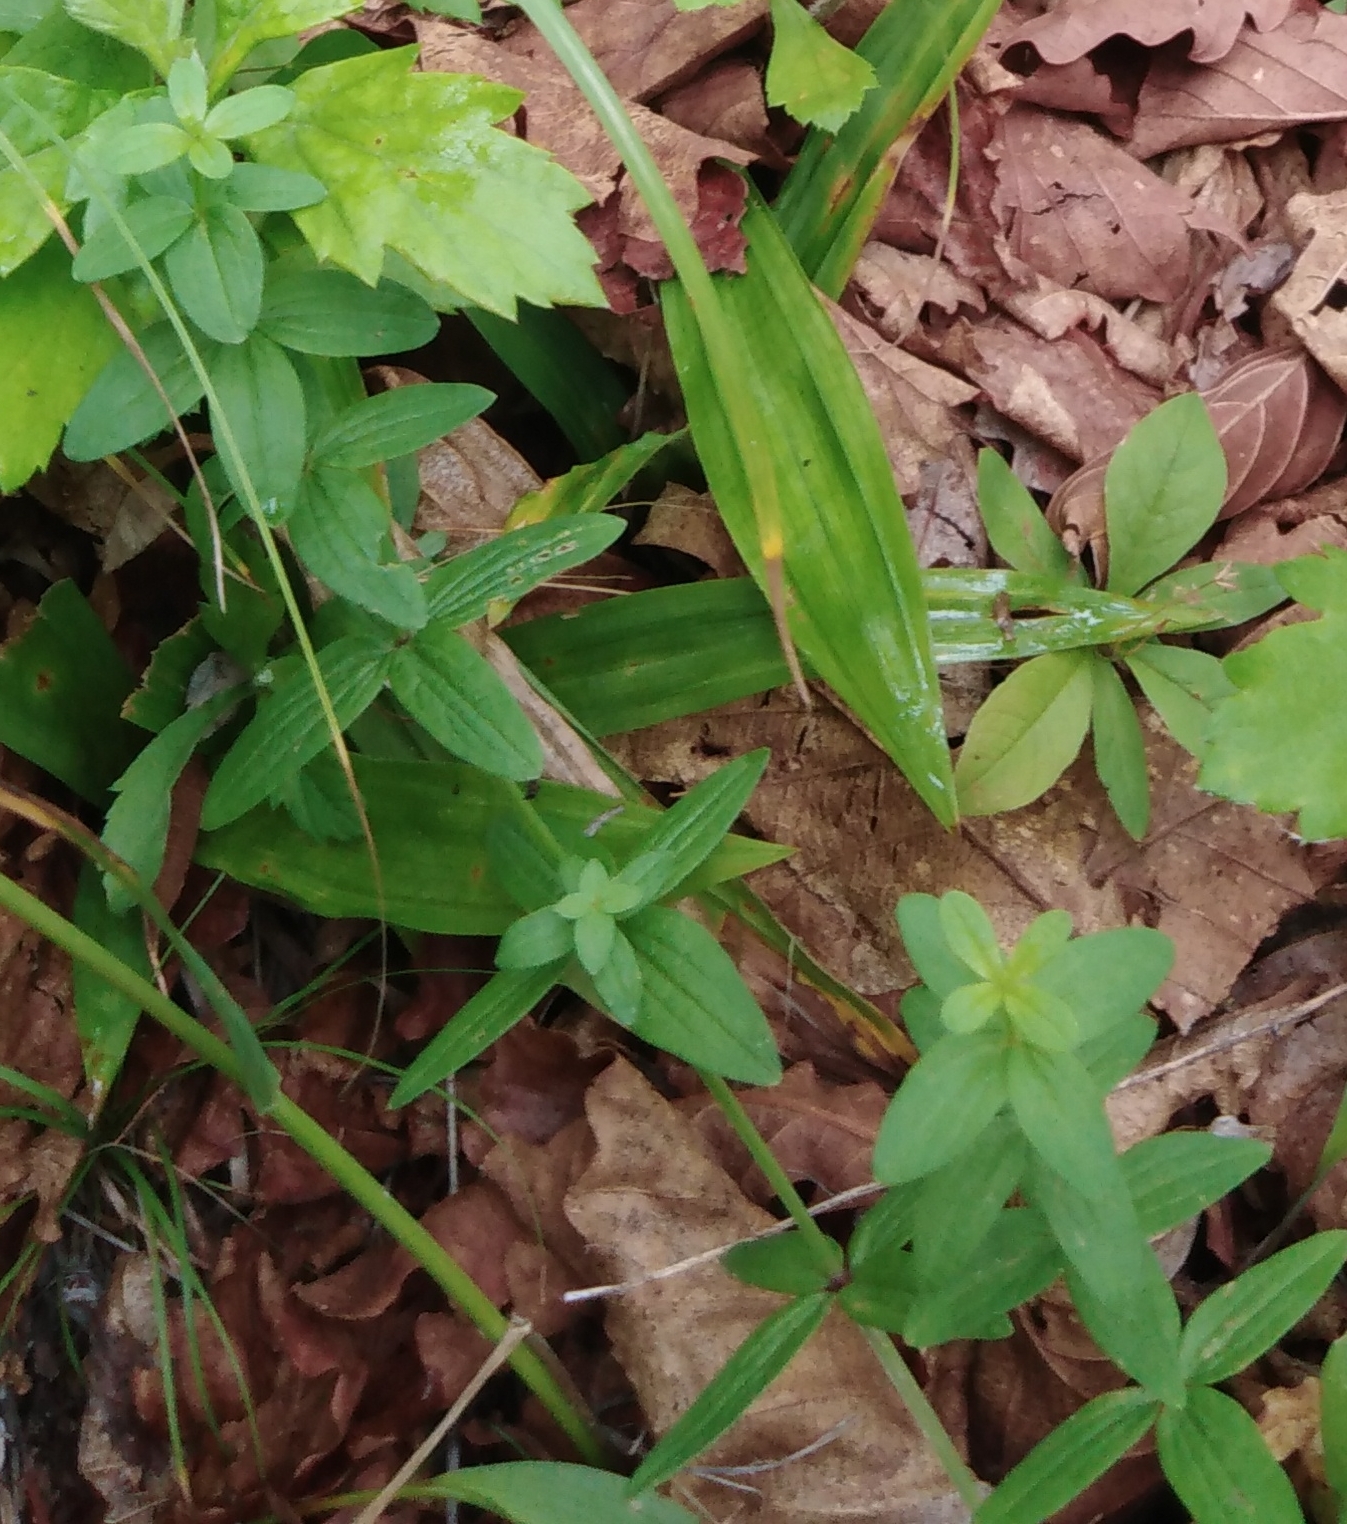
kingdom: Plantae
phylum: Tracheophyta
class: Magnoliopsida
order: Gentianales
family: Rubiaceae
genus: Galium
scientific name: Galium boreale
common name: Northern bedstraw
